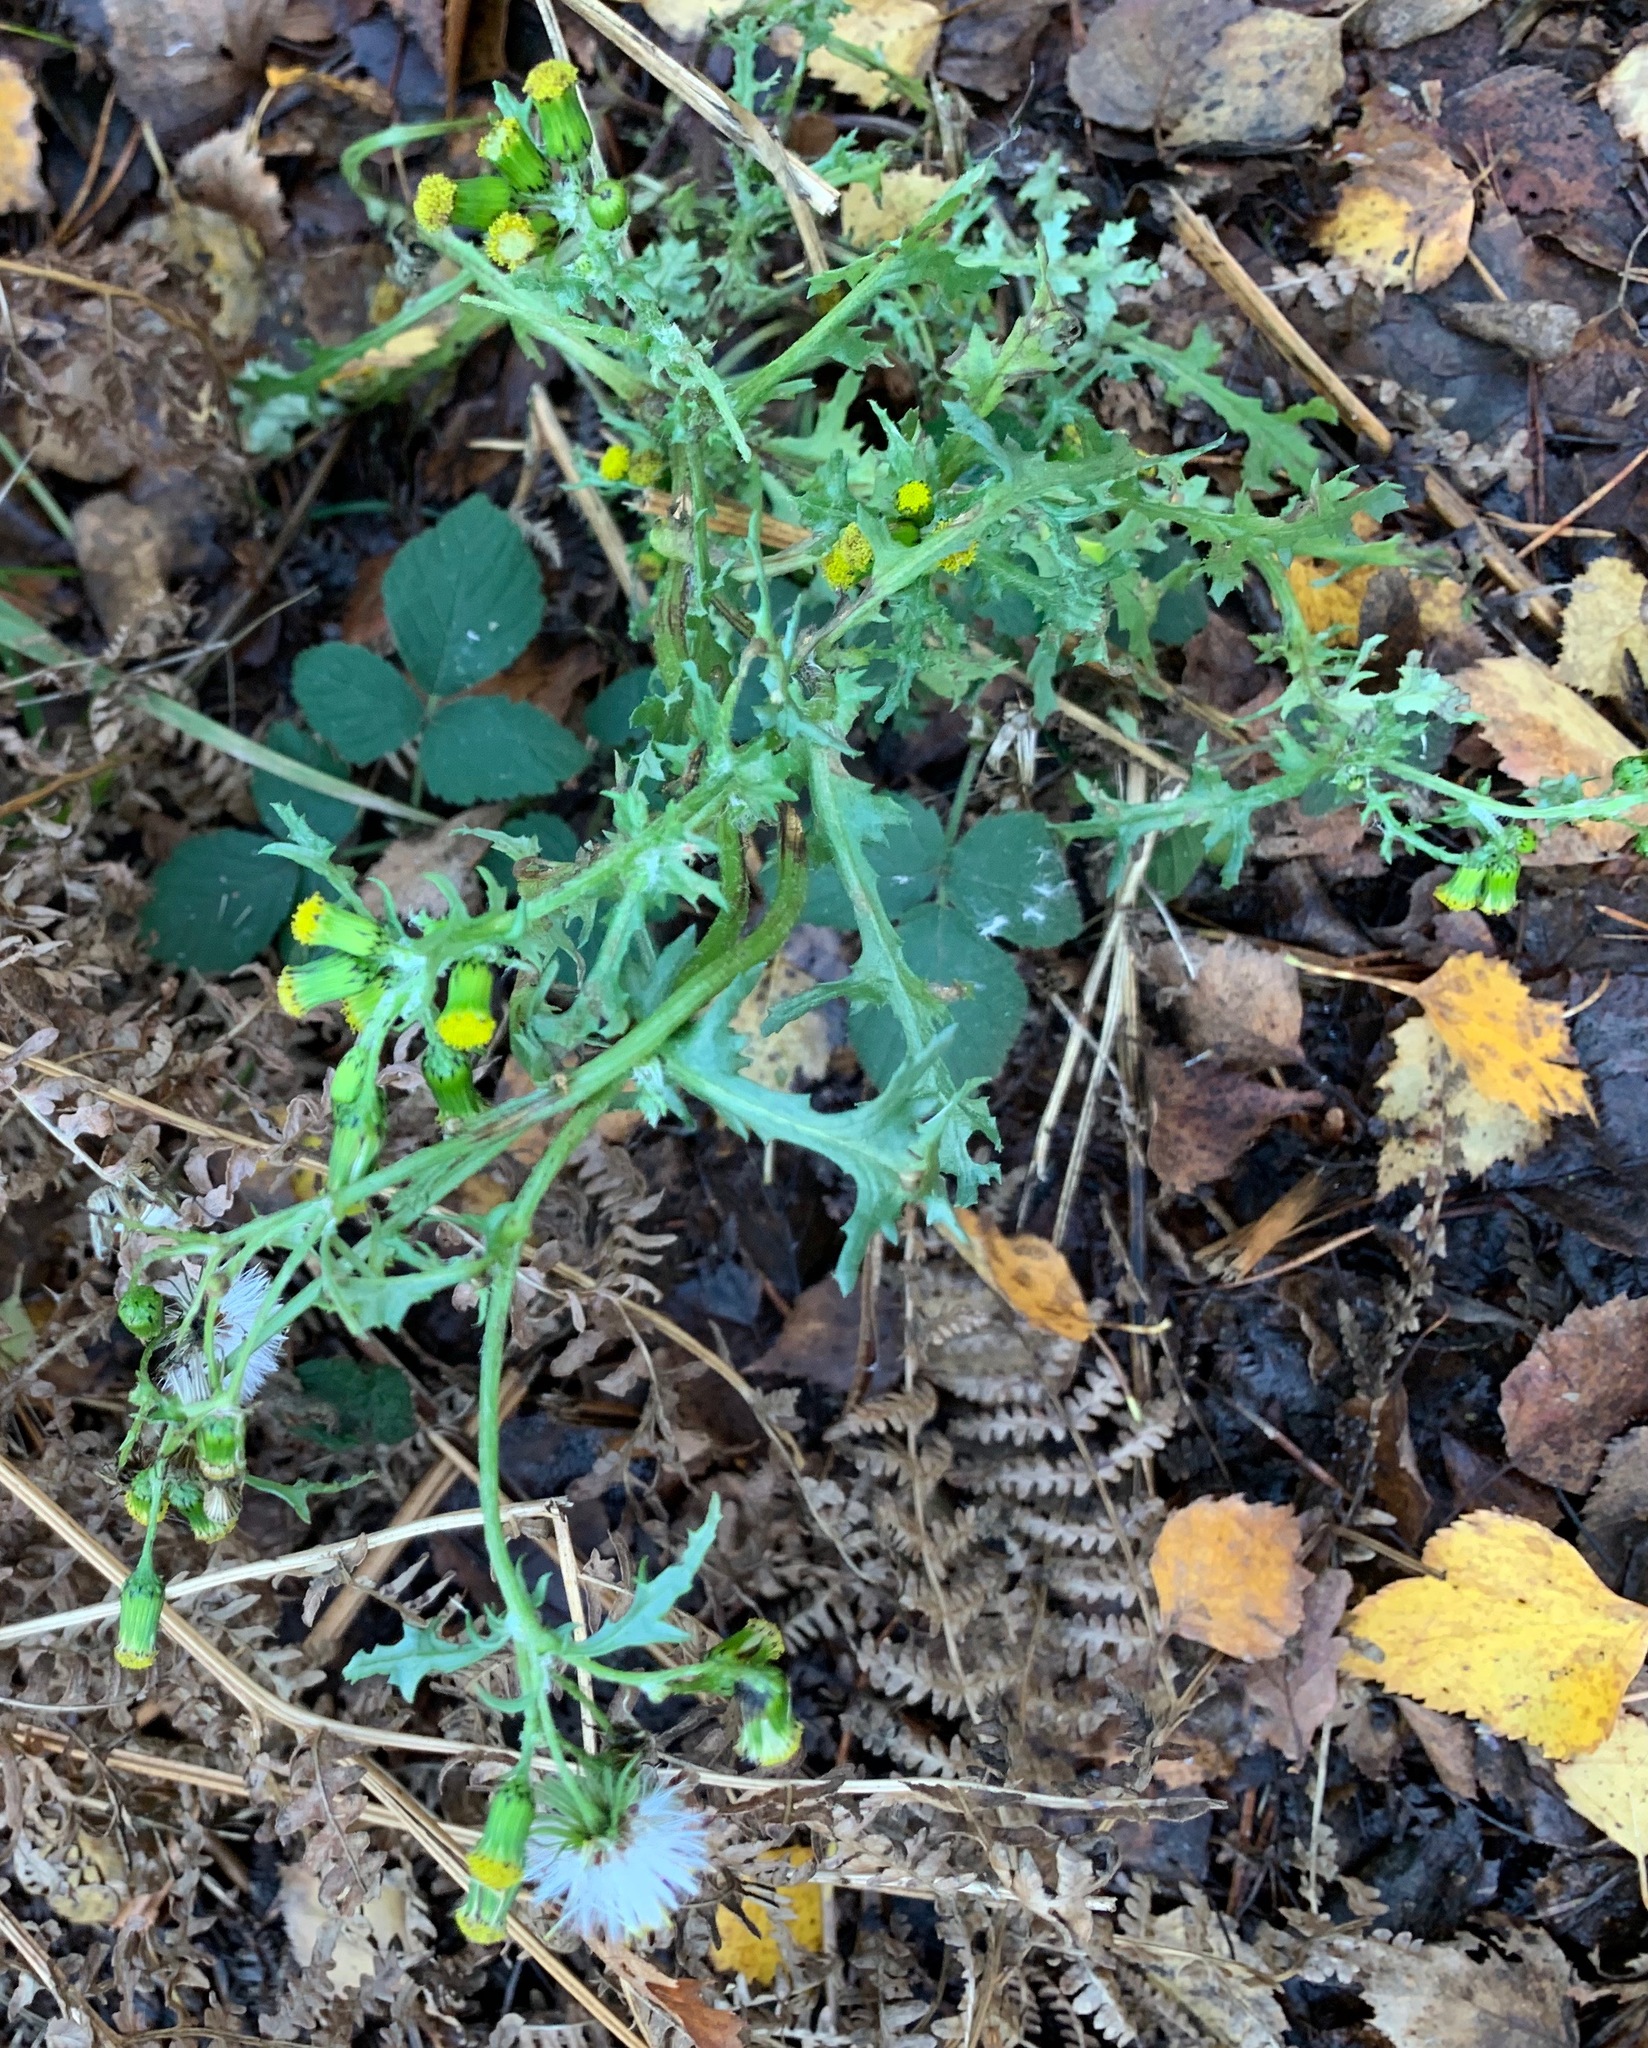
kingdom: Plantae
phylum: Tracheophyta
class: Magnoliopsida
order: Asterales
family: Asteraceae
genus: Senecio
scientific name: Senecio vulgaris
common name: Old-man-in-the-spring
